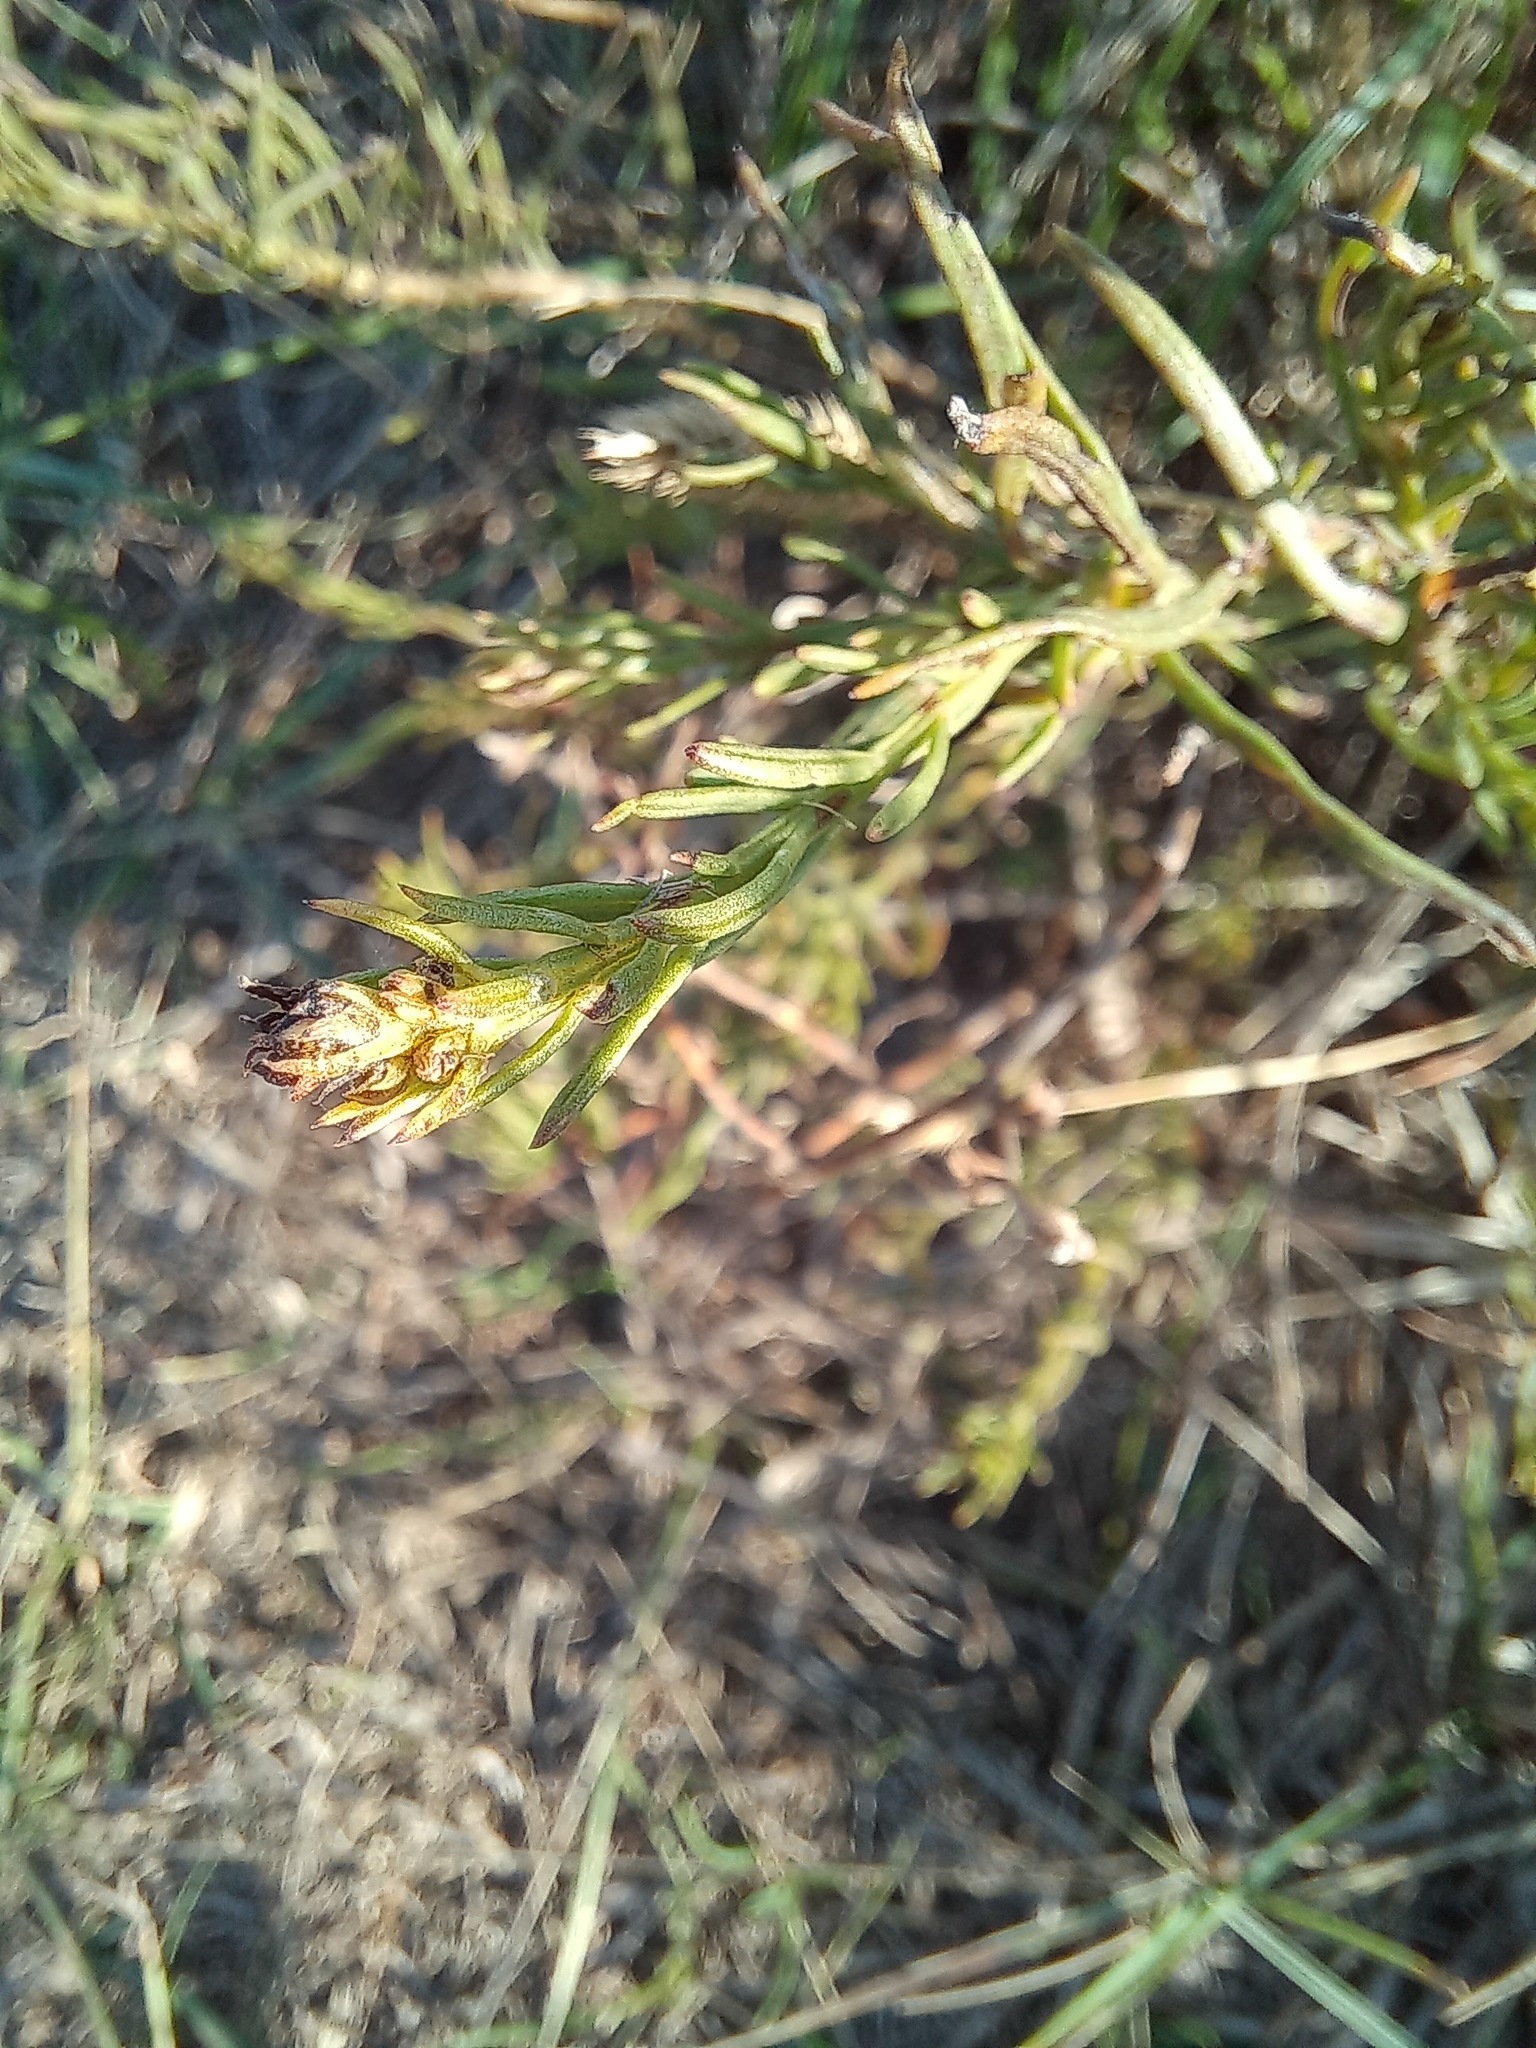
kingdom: Plantae
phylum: Tracheophyta
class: Magnoliopsida
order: Asterales
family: Asteraceae
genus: Galatella
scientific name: Galatella linosyris
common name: Goldilocks aster
